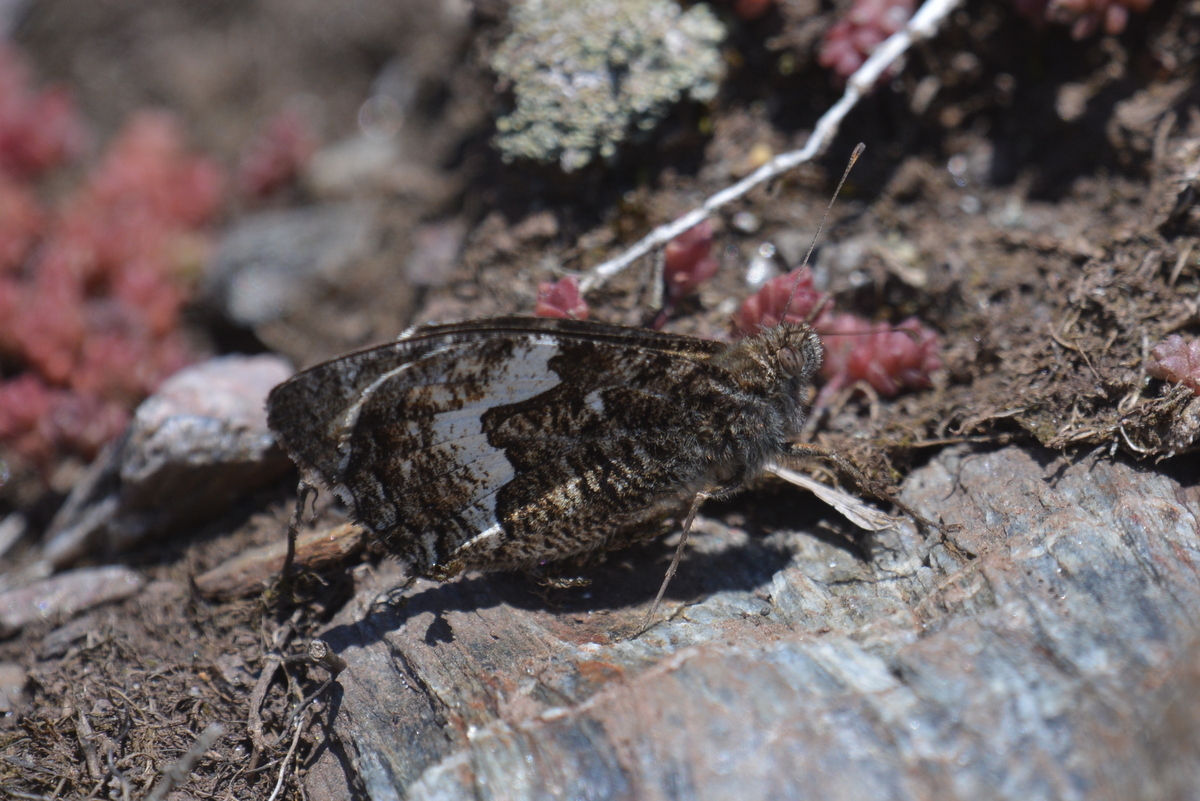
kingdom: Animalia
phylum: Arthropoda
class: Insecta
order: Lepidoptera
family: Nymphalidae
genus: Hipparchia
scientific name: Hipparchia semele
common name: Grayling
